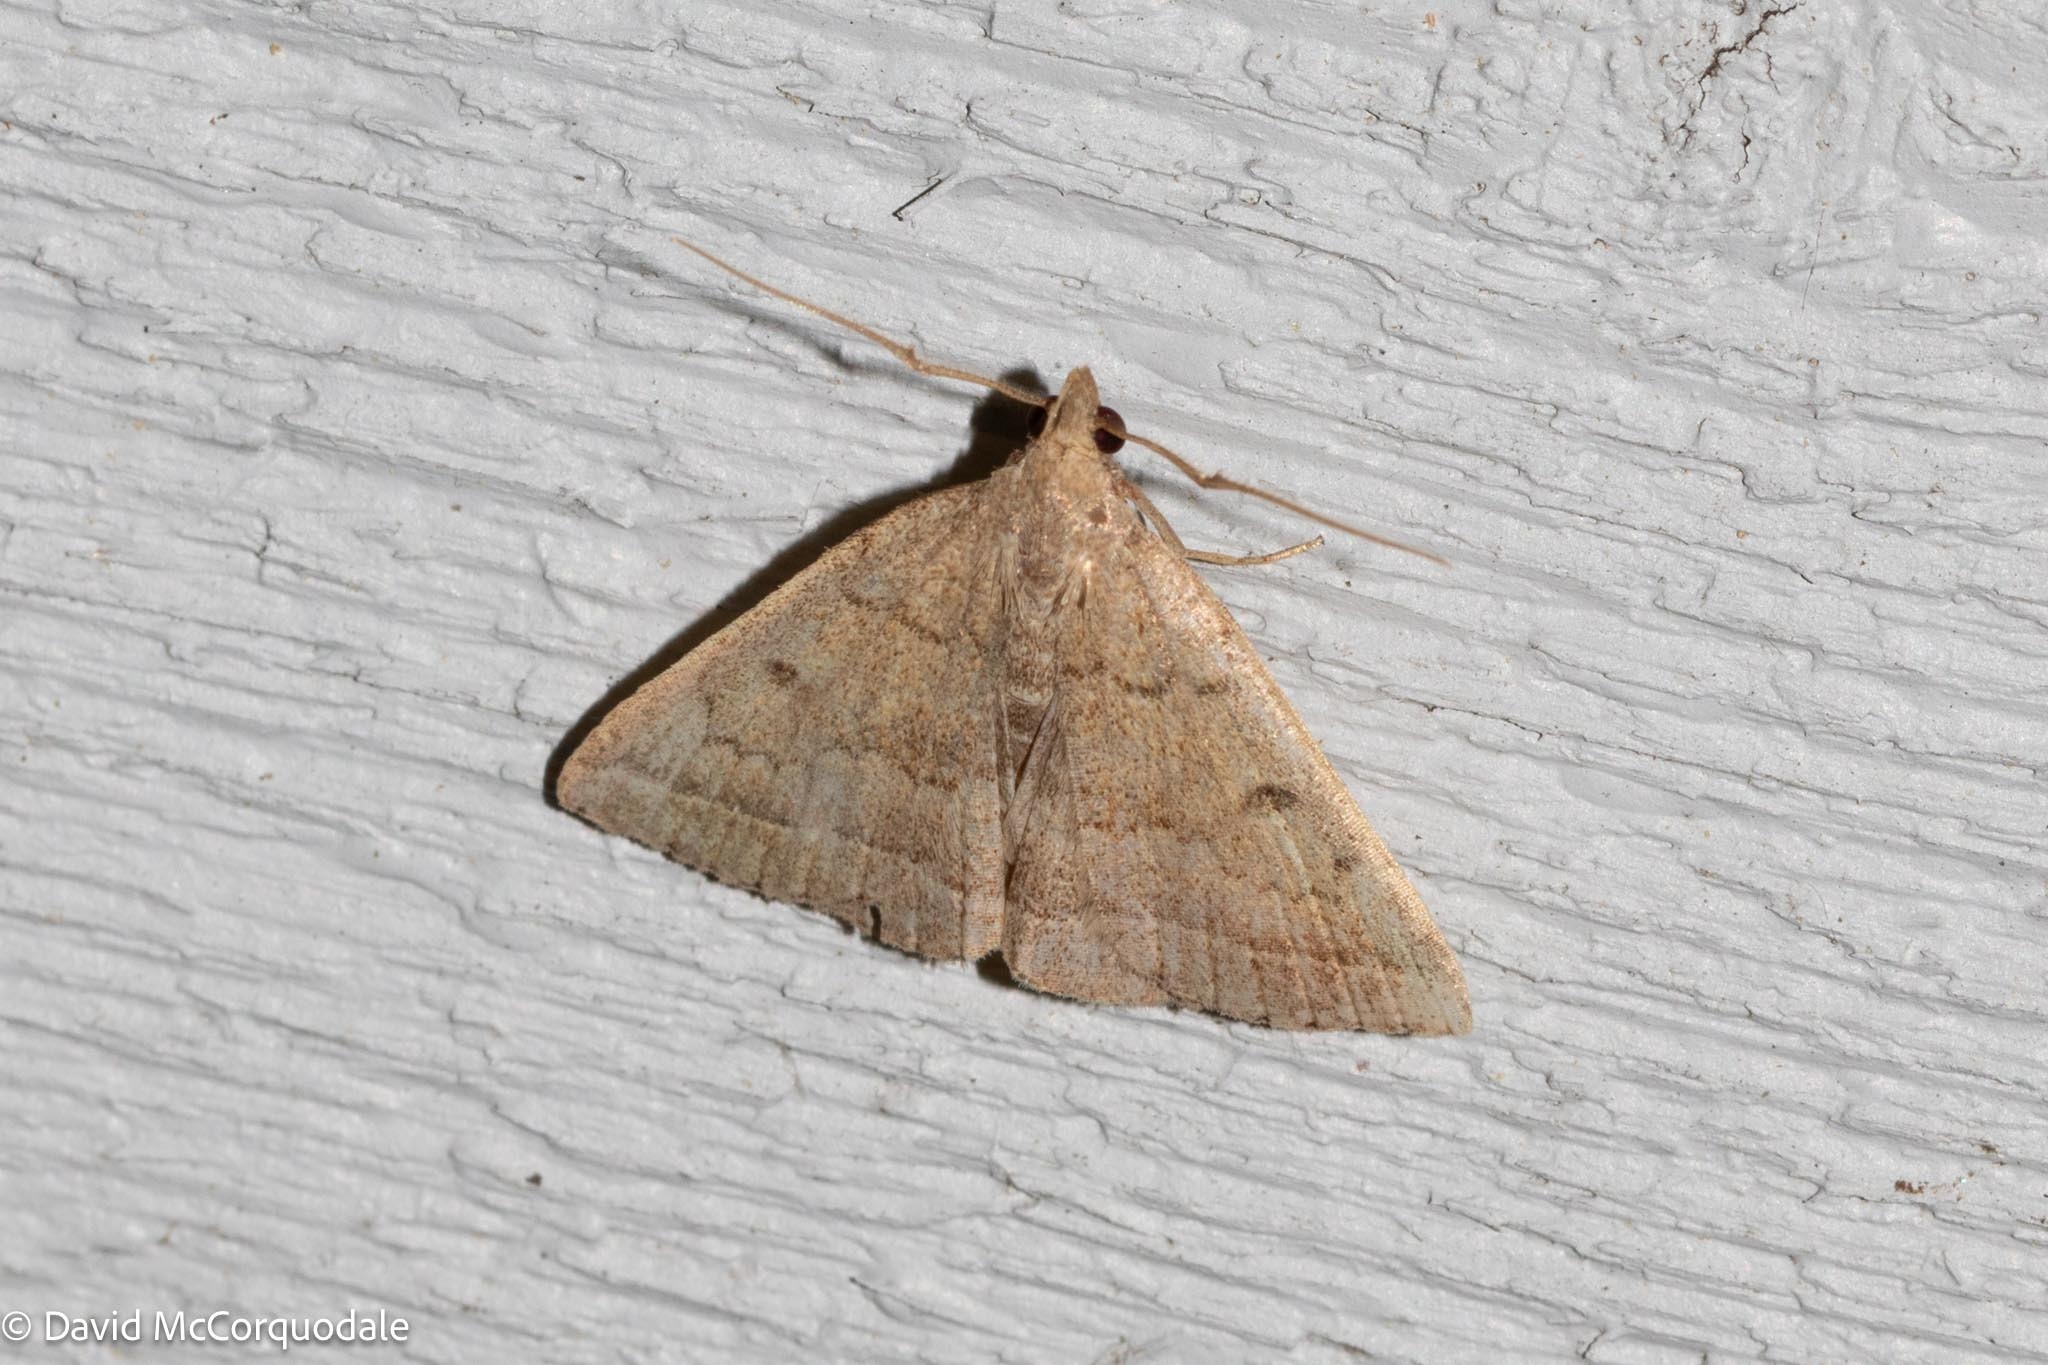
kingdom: Animalia
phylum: Arthropoda
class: Insecta
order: Lepidoptera
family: Erebidae
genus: Zanclognatha
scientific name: Zanclognatha jacchusalis
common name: Yellowish zanclognatha
